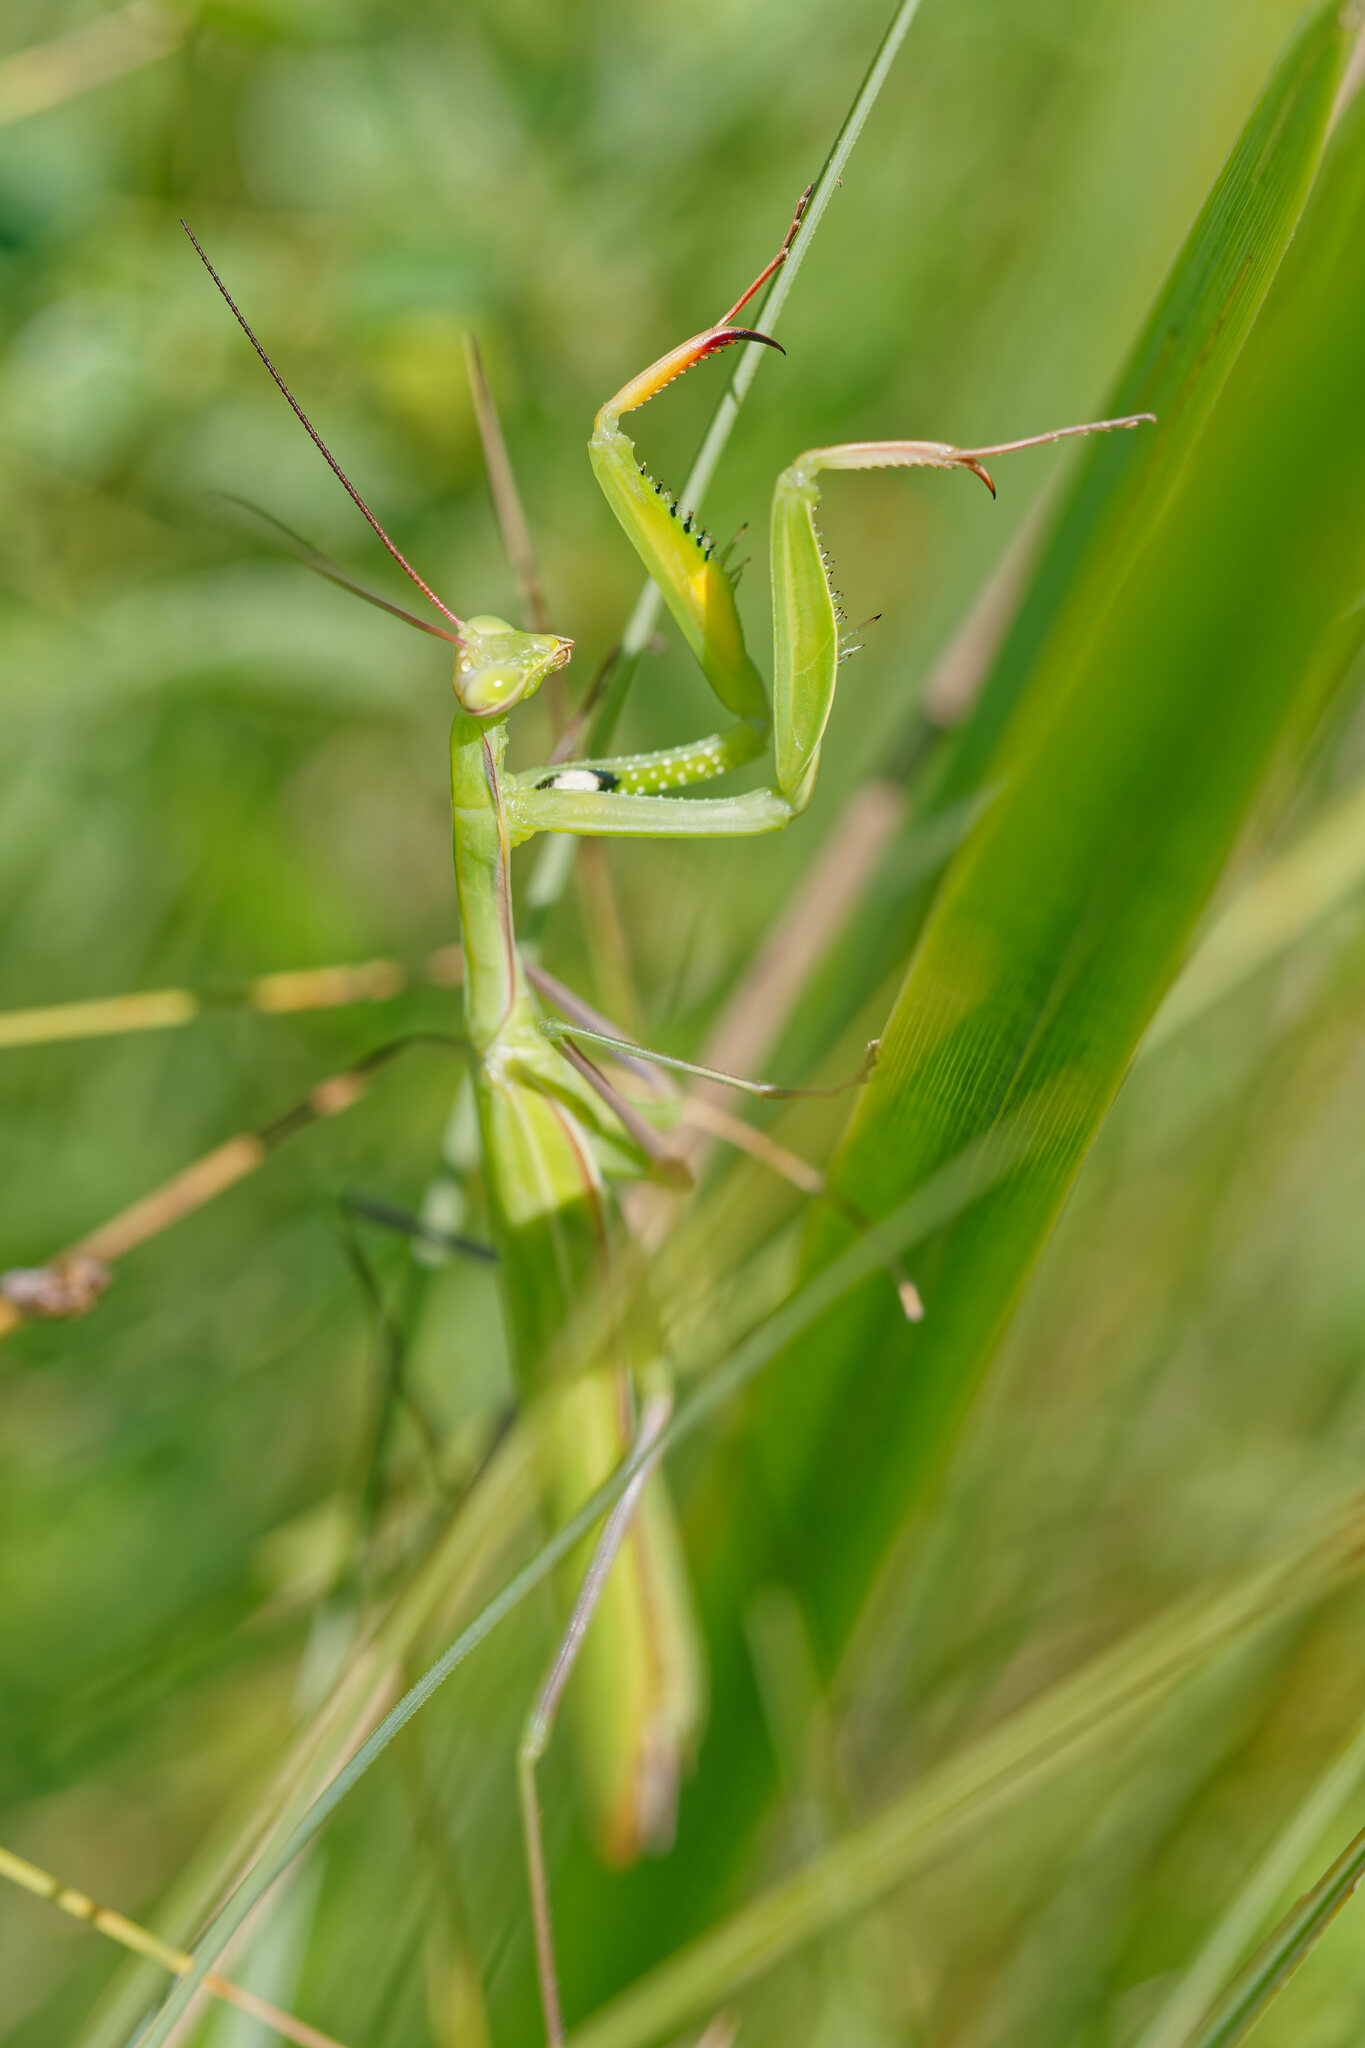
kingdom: Animalia
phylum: Arthropoda
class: Insecta
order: Mantodea
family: Mantidae
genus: Mantis
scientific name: Mantis religiosa
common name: Praying mantis
